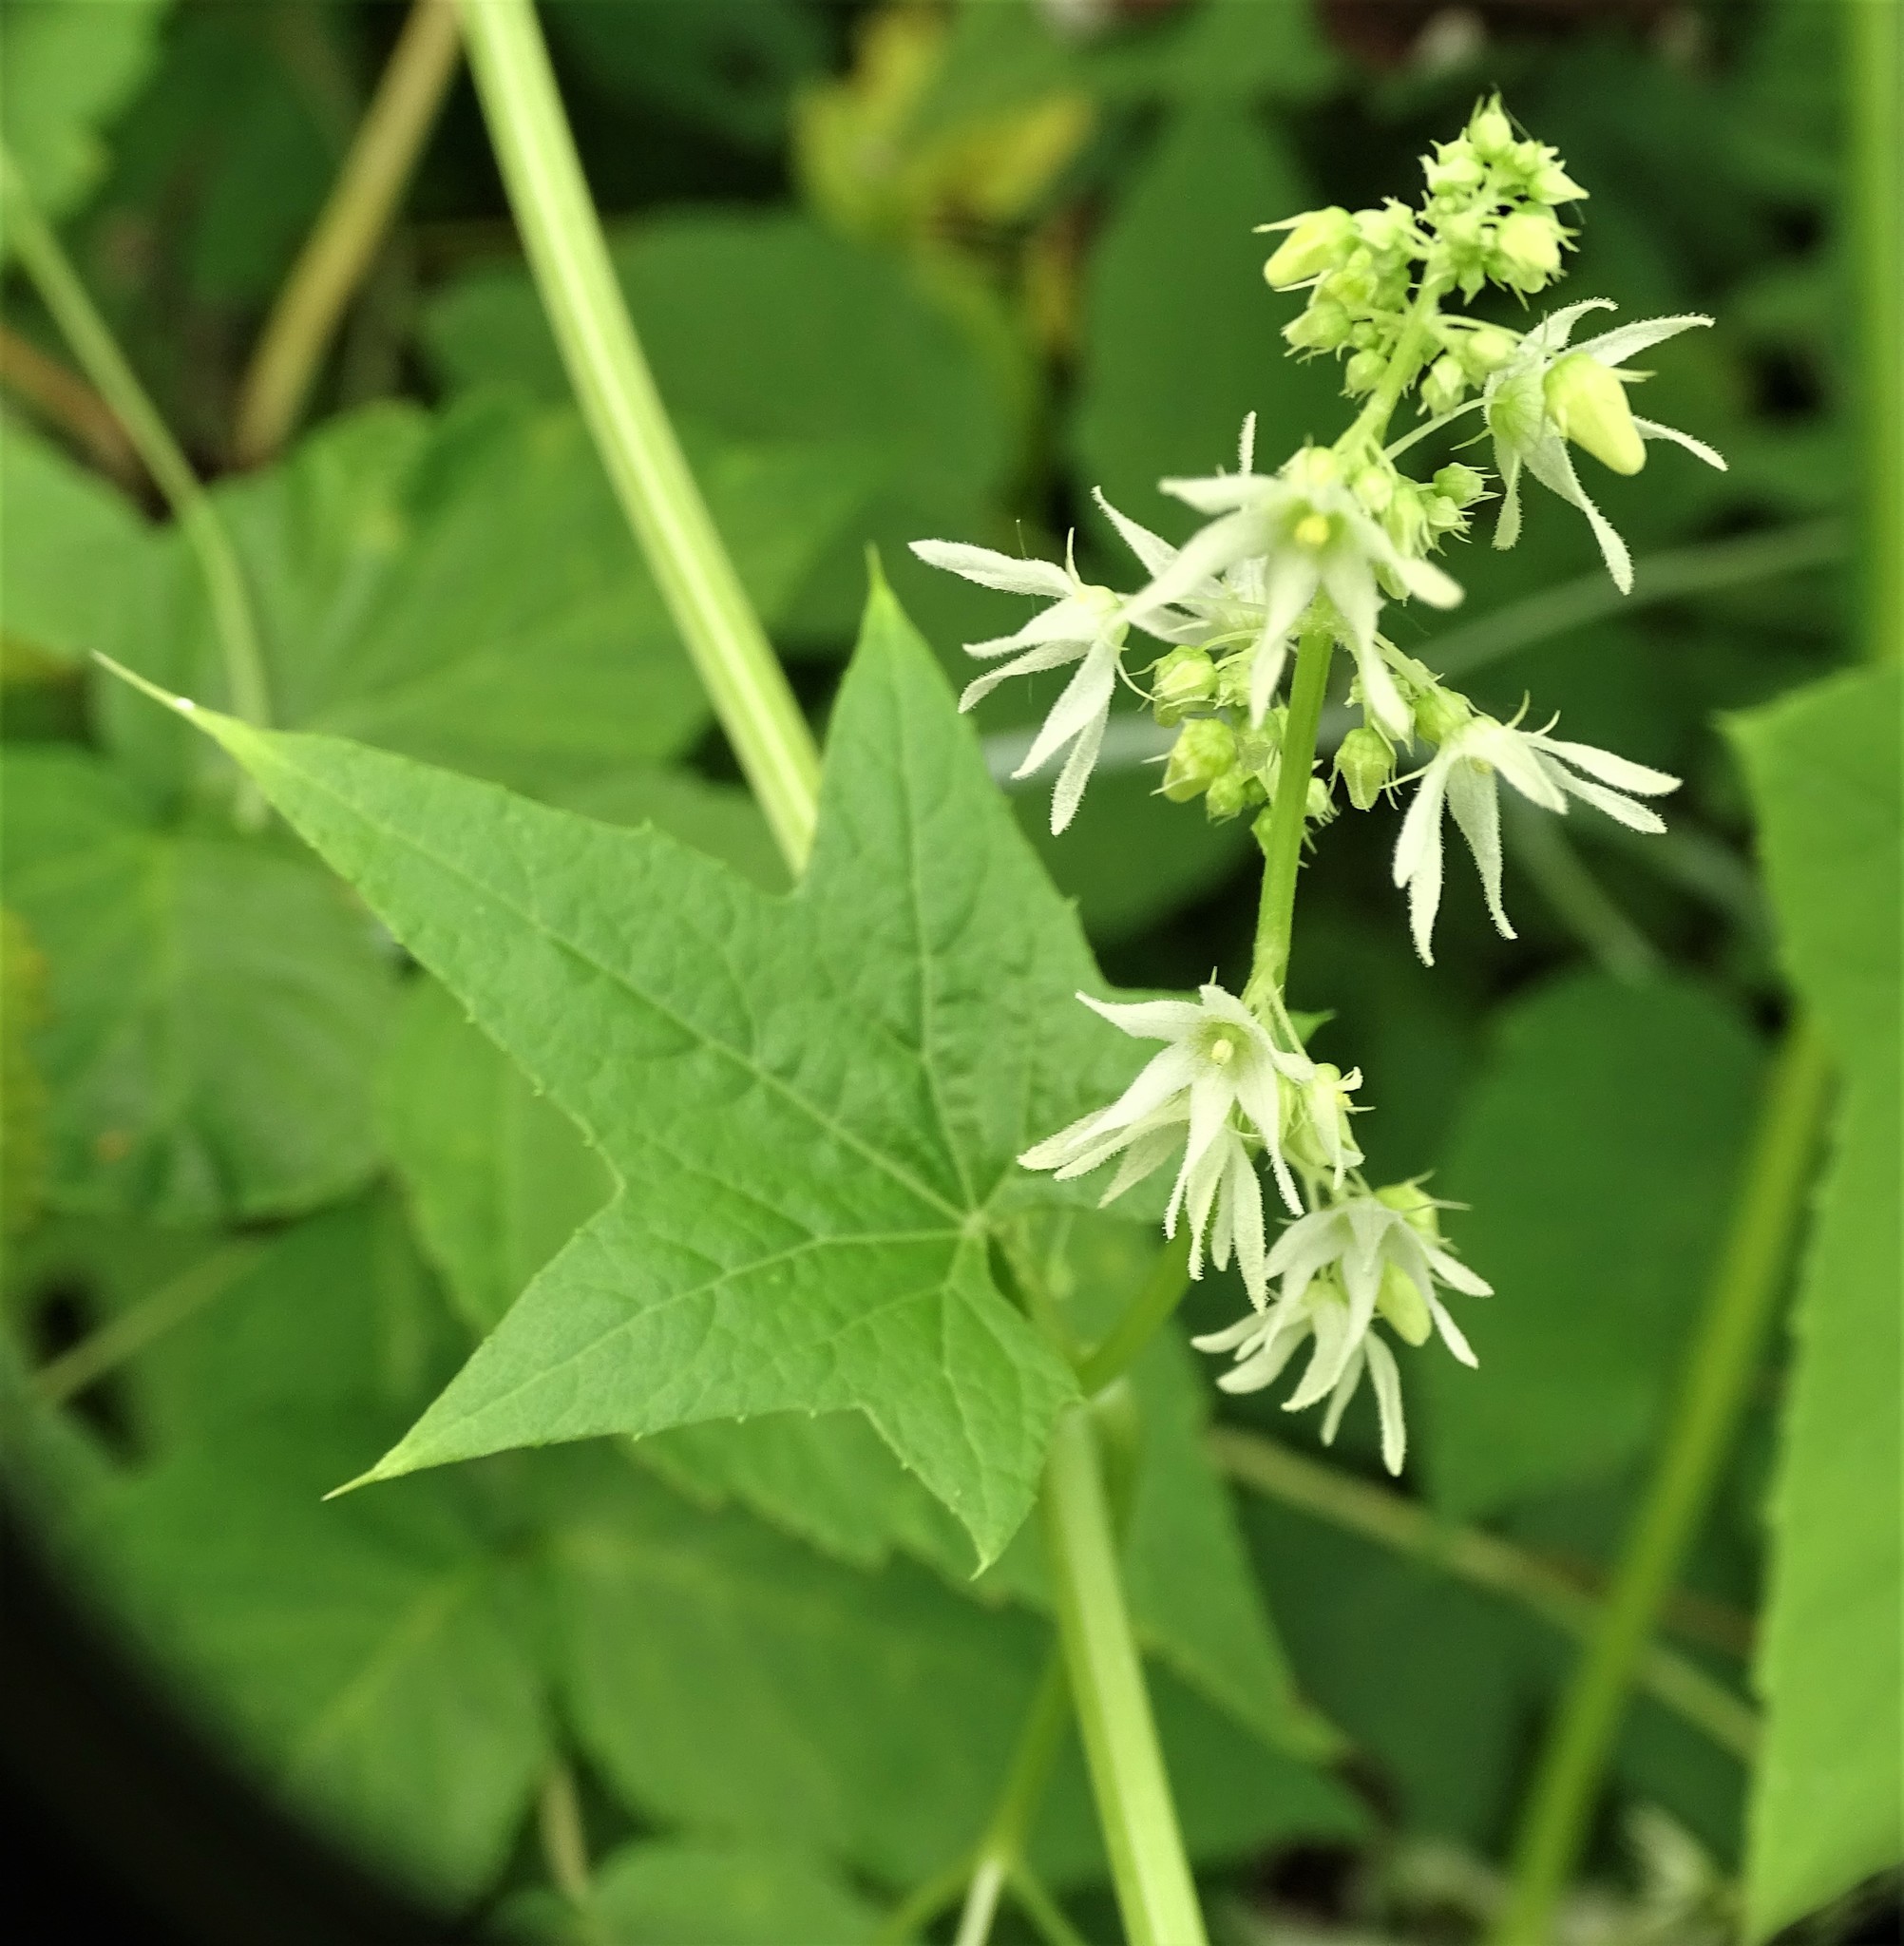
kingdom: Plantae
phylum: Tracheophyta
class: Magnoliopsida
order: Cucurbitales
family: Cucurbitaceae
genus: Echinocystis
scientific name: Echinocystis lobata
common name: Wild cucumber
